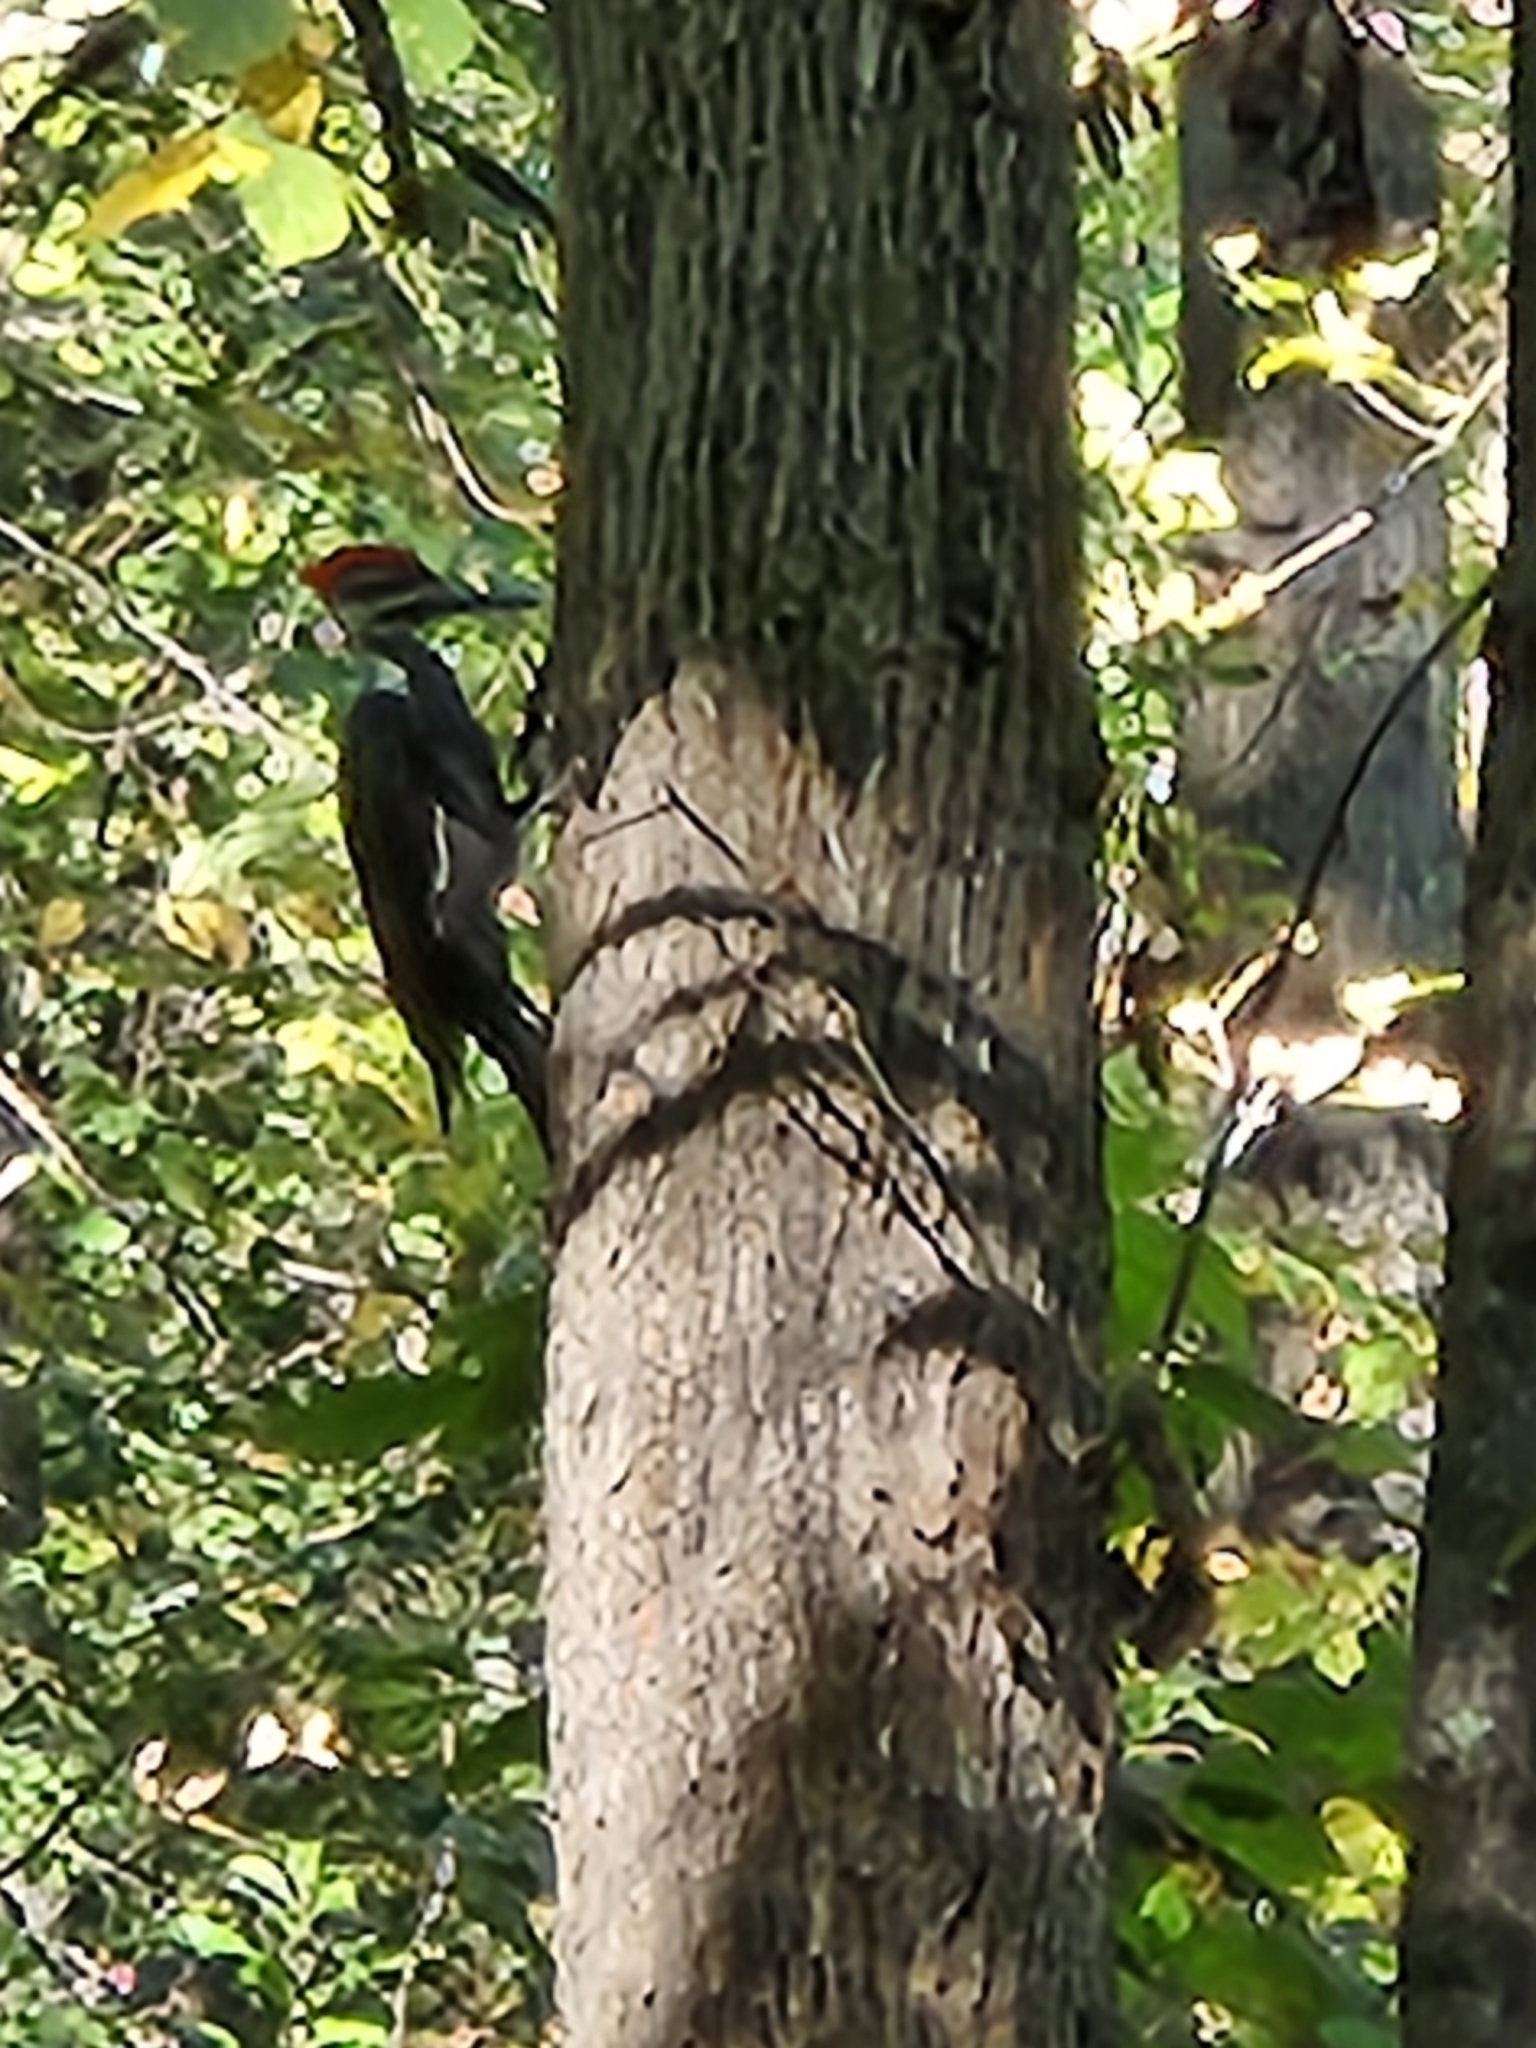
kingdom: Animalia
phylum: Chordata
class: Aves
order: Piciformes
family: Picidae
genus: Dryocopus
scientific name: Dryocopus pileatus
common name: Pileated woodpecker
